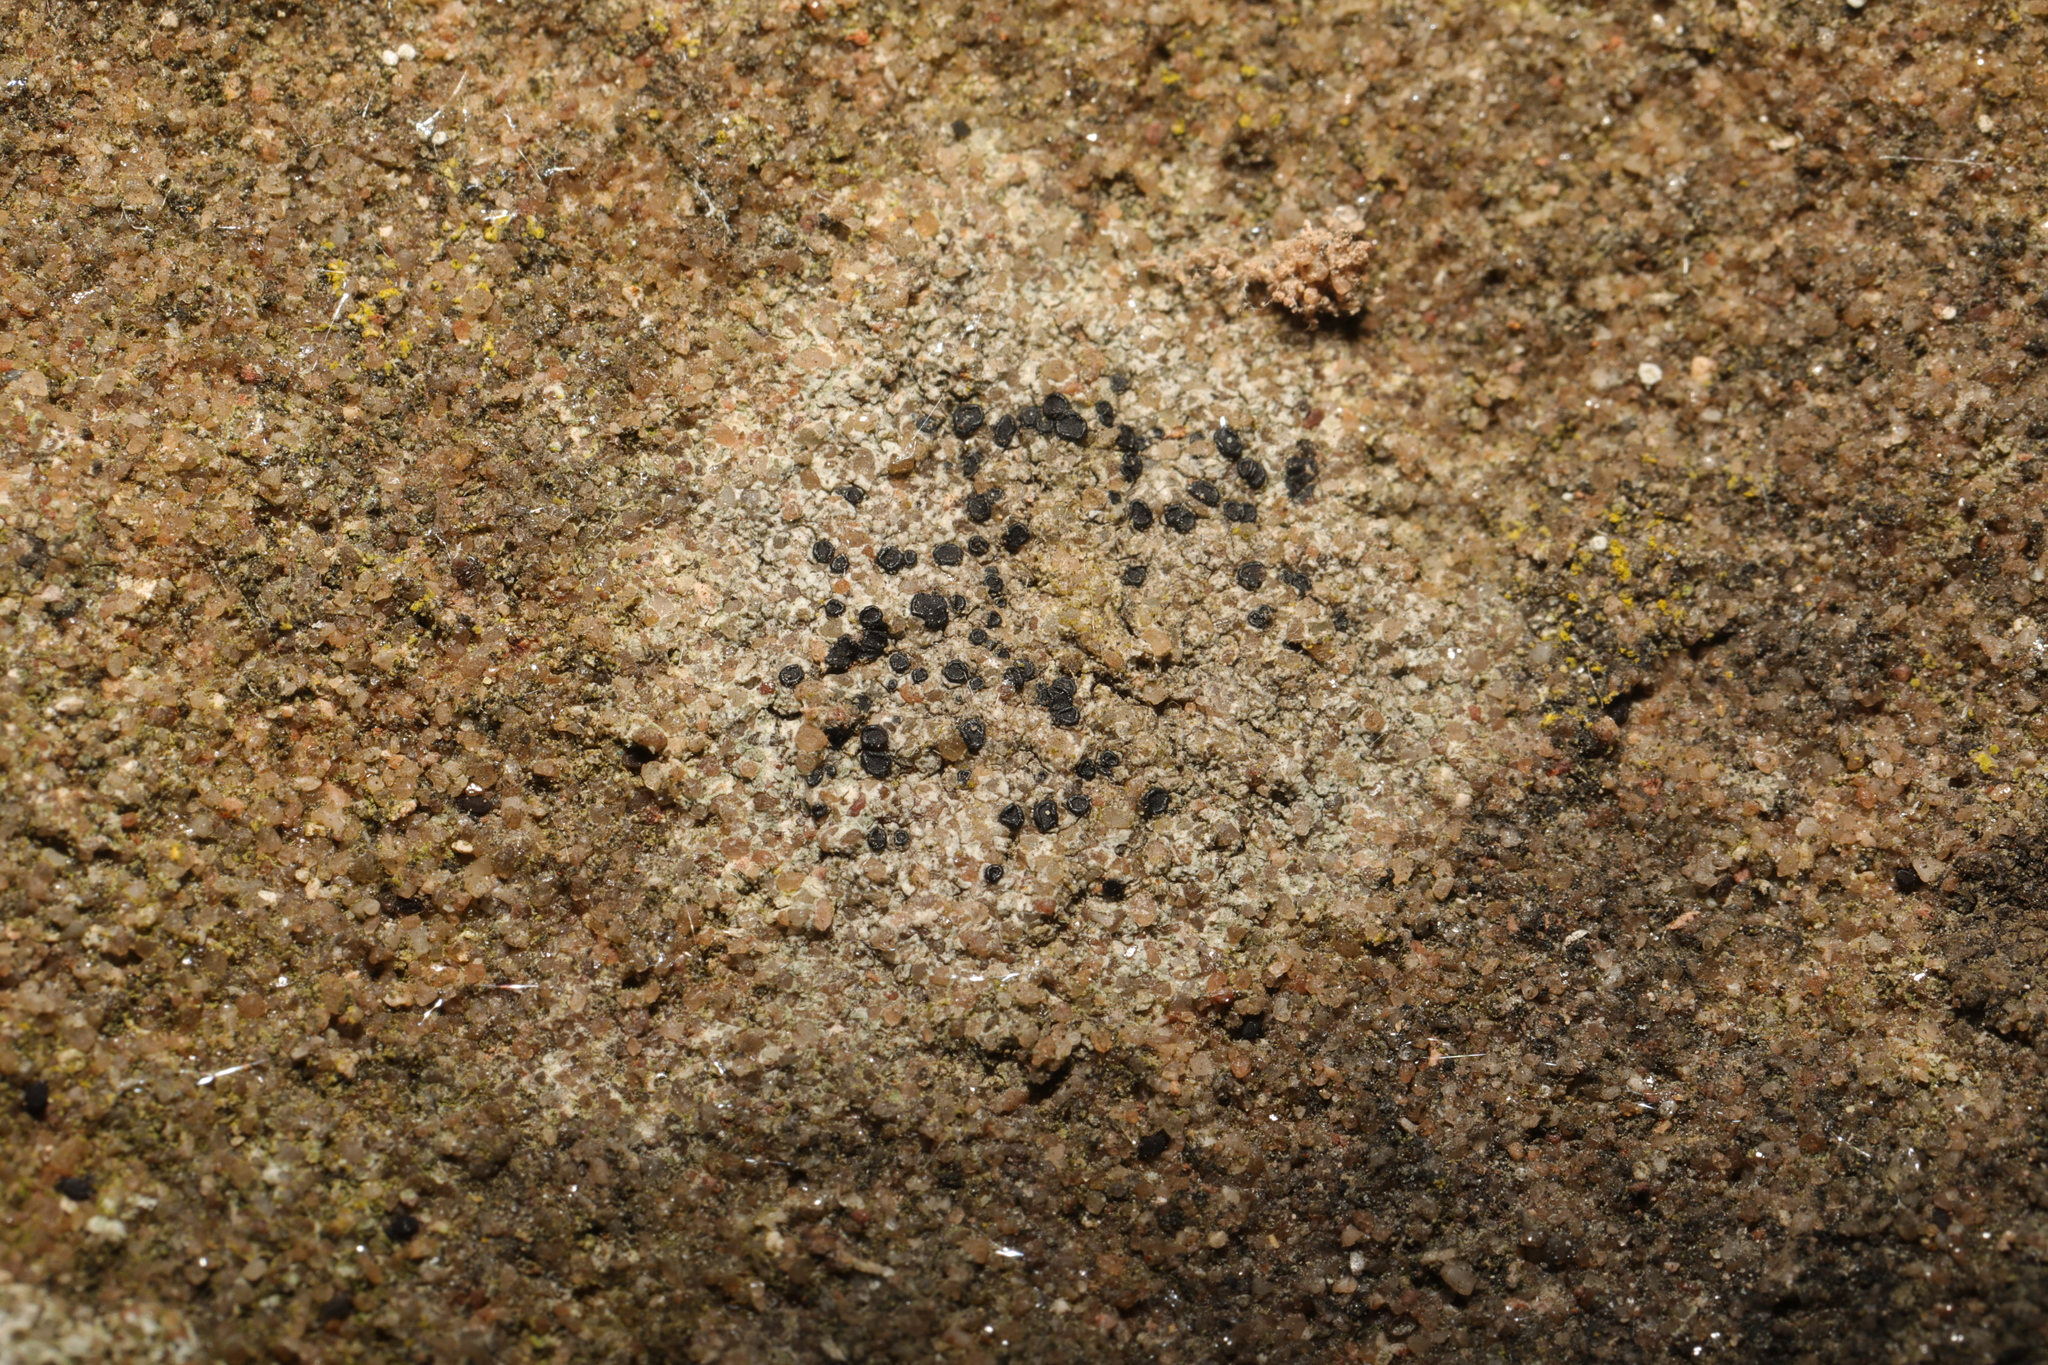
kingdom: Fungi
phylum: Ascomycota
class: Lecanoromycetes
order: Lecanorales
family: Lecanoraceae
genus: Lecidella
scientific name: Lecidella stigmatea
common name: Limestone disc lichen
